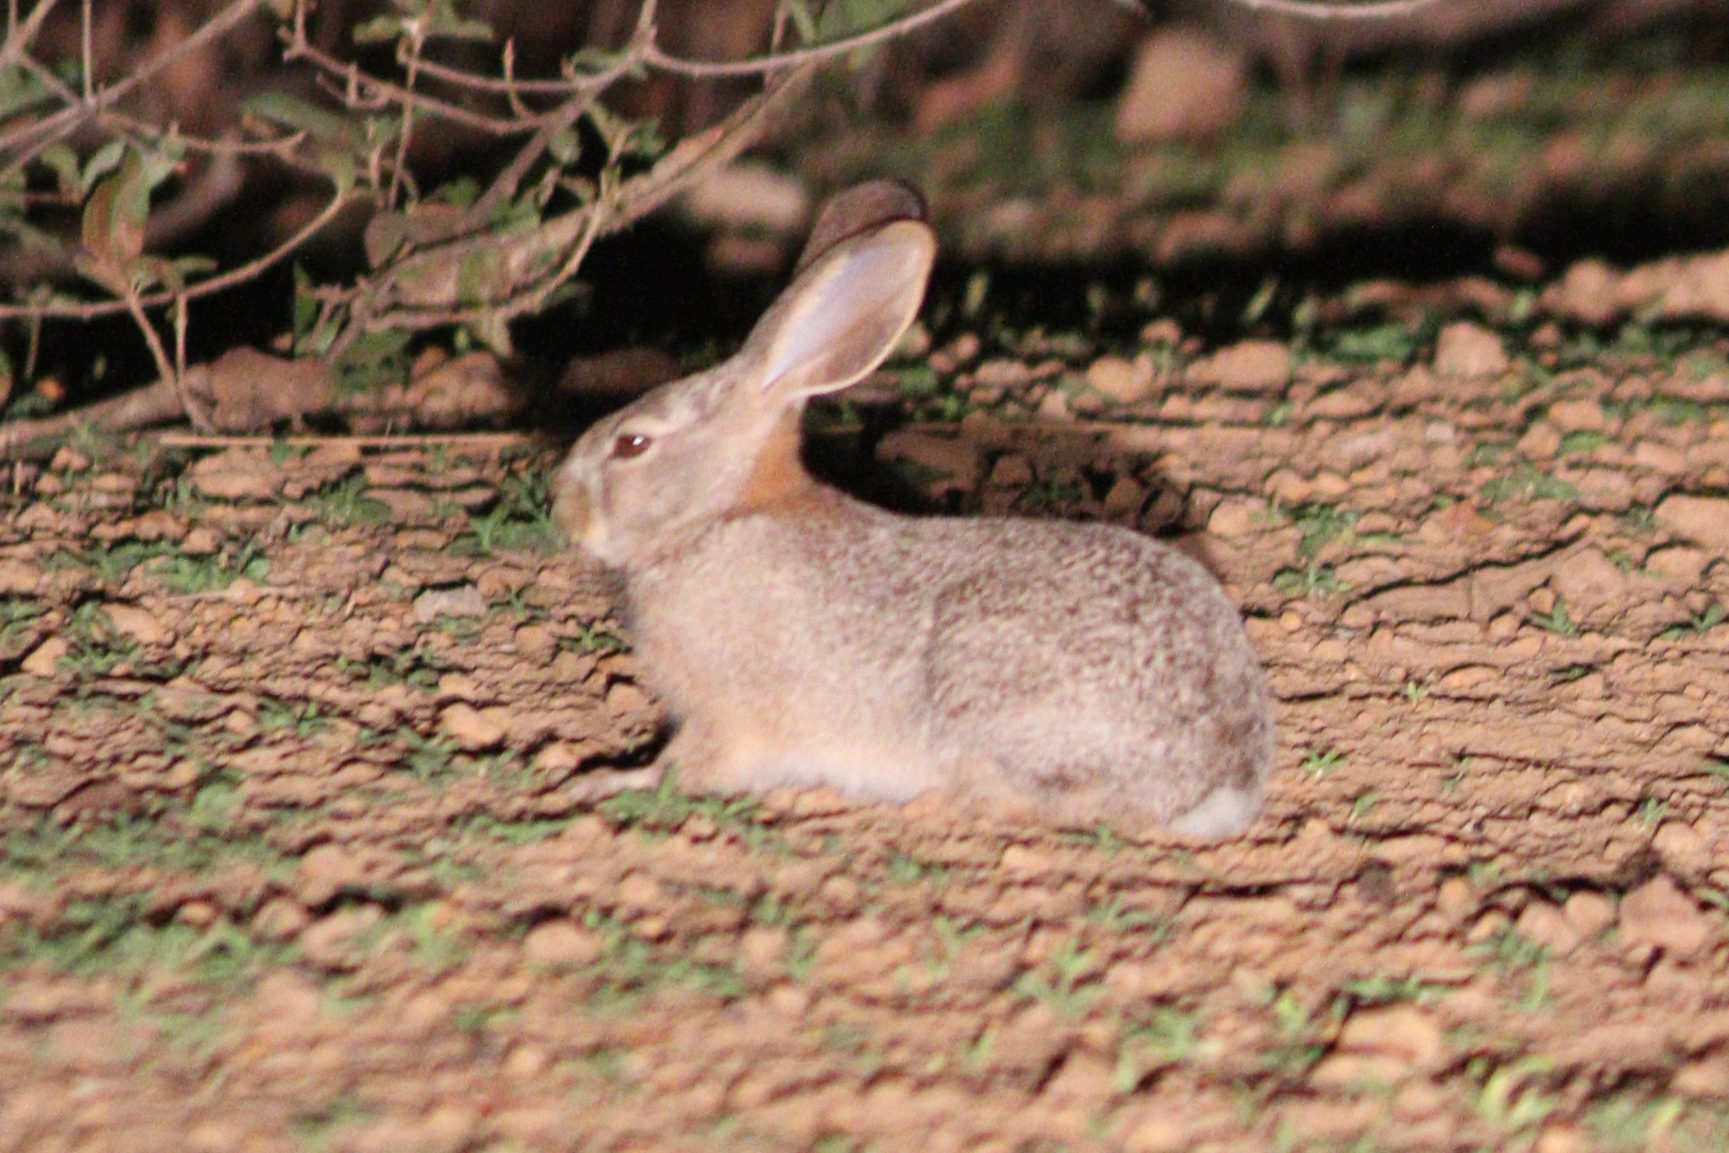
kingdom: Animalia
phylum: Chordata
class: Mammalia
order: Lagomorpha
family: Leporidae
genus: Lepus
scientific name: Lepus victoriae
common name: African savanna hare
